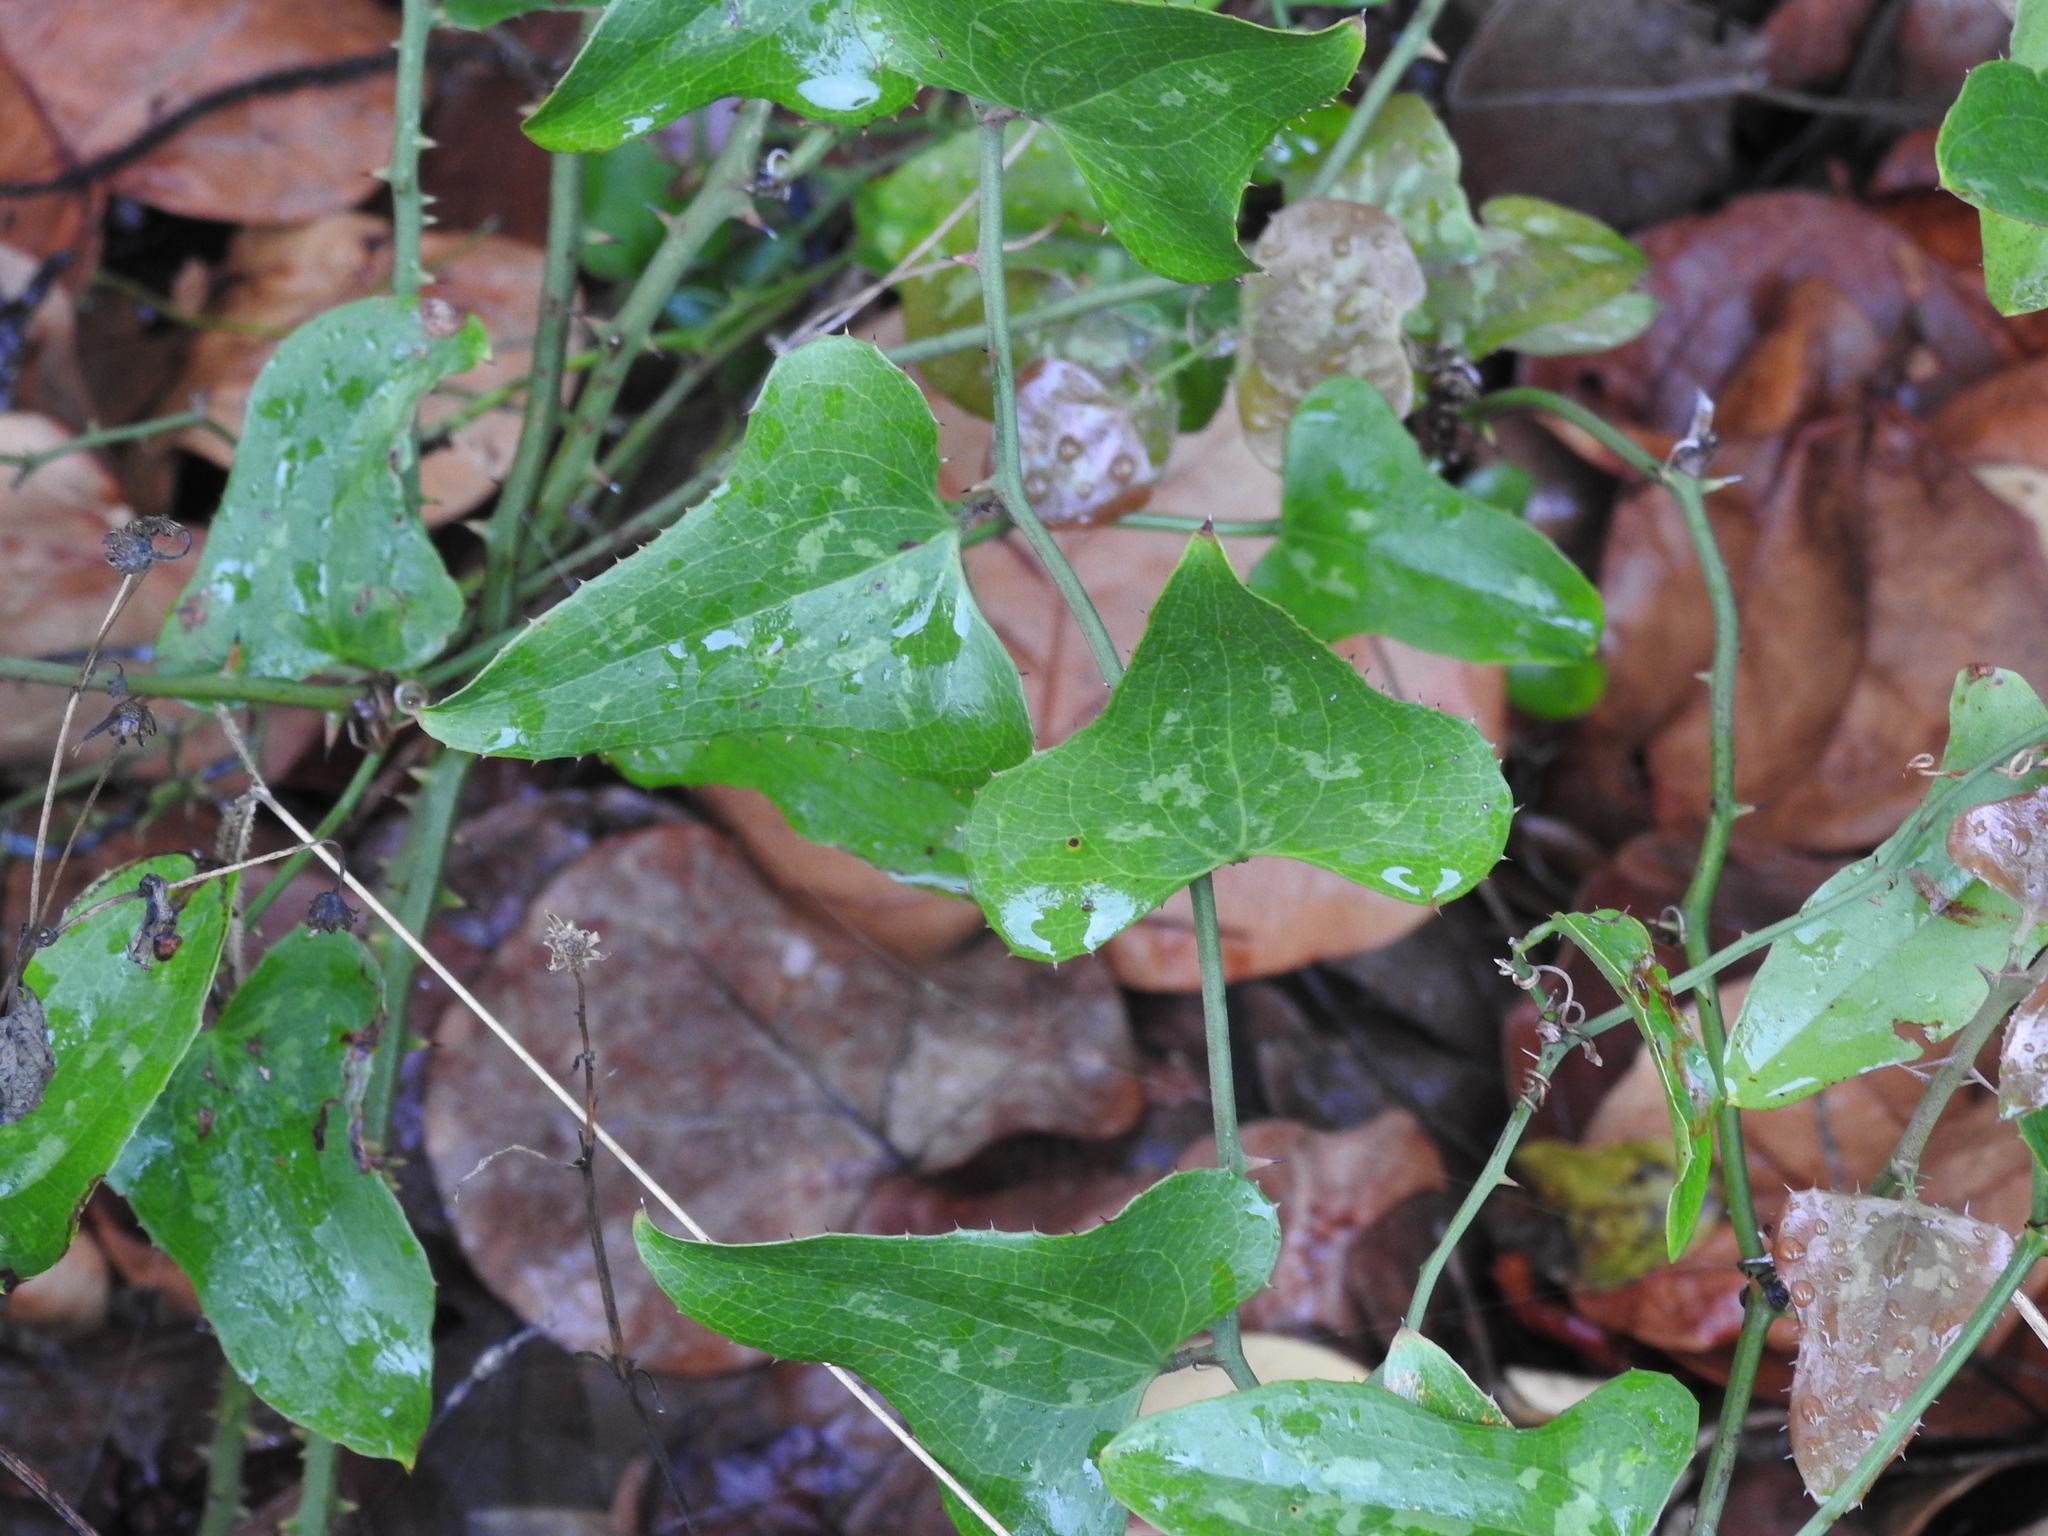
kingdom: Plantae
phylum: Tracheophyta
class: Liliopsida
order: Liliales
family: Smilacaceae
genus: Smilax
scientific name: Smilax bona-nox
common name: Catbrier
